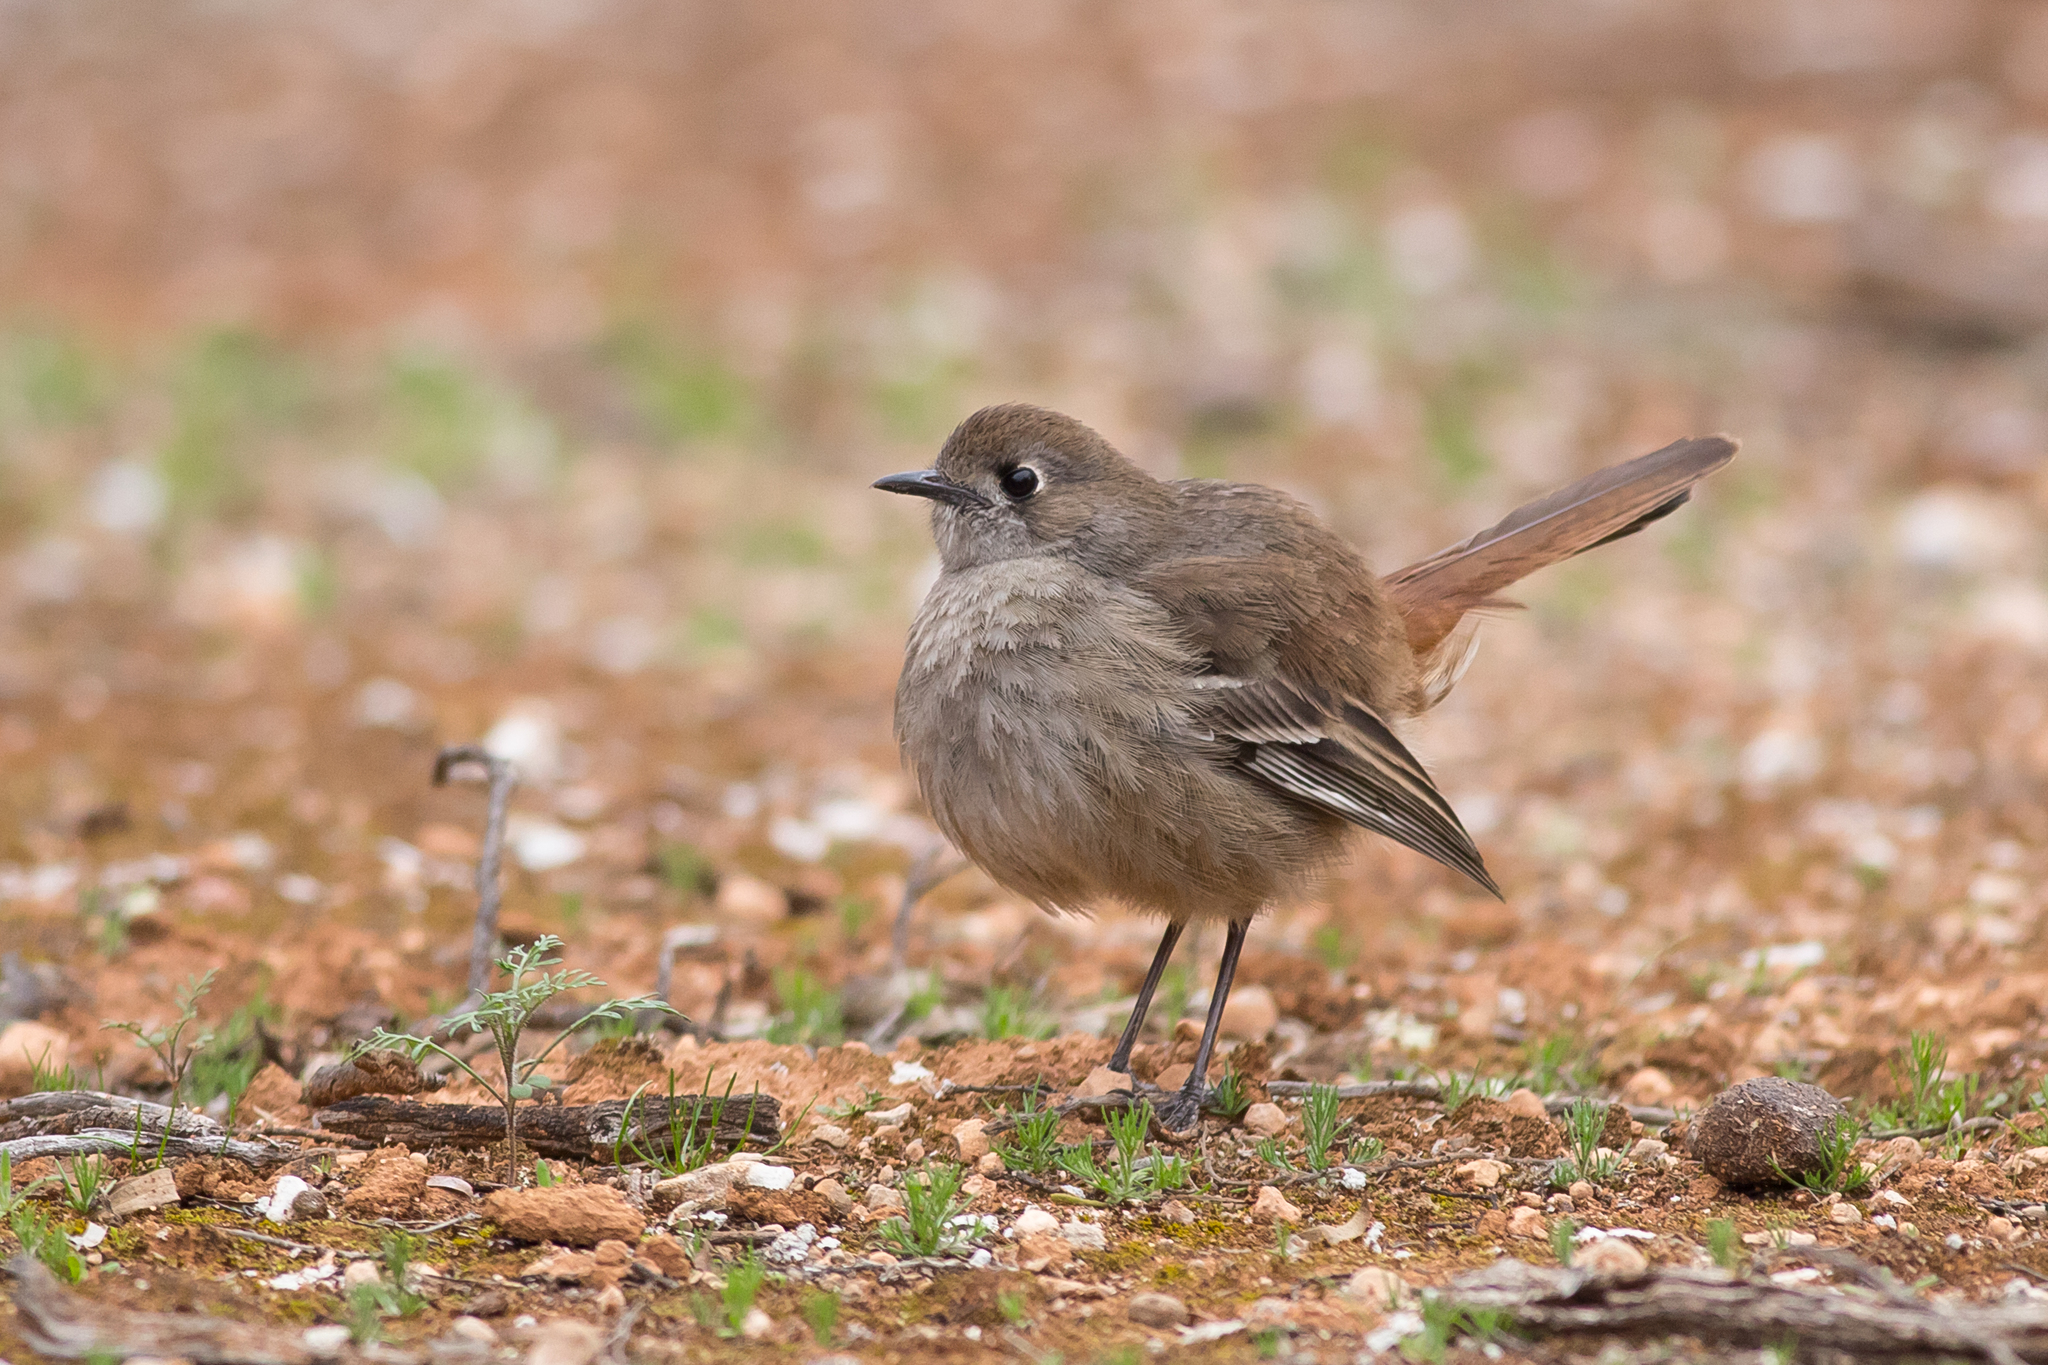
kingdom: Animalia
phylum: Chordata
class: Aves
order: Passeriformes
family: Petroicidae
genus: Drymodes
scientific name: Drymodes brunneopygia
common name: Southern scrub robin
